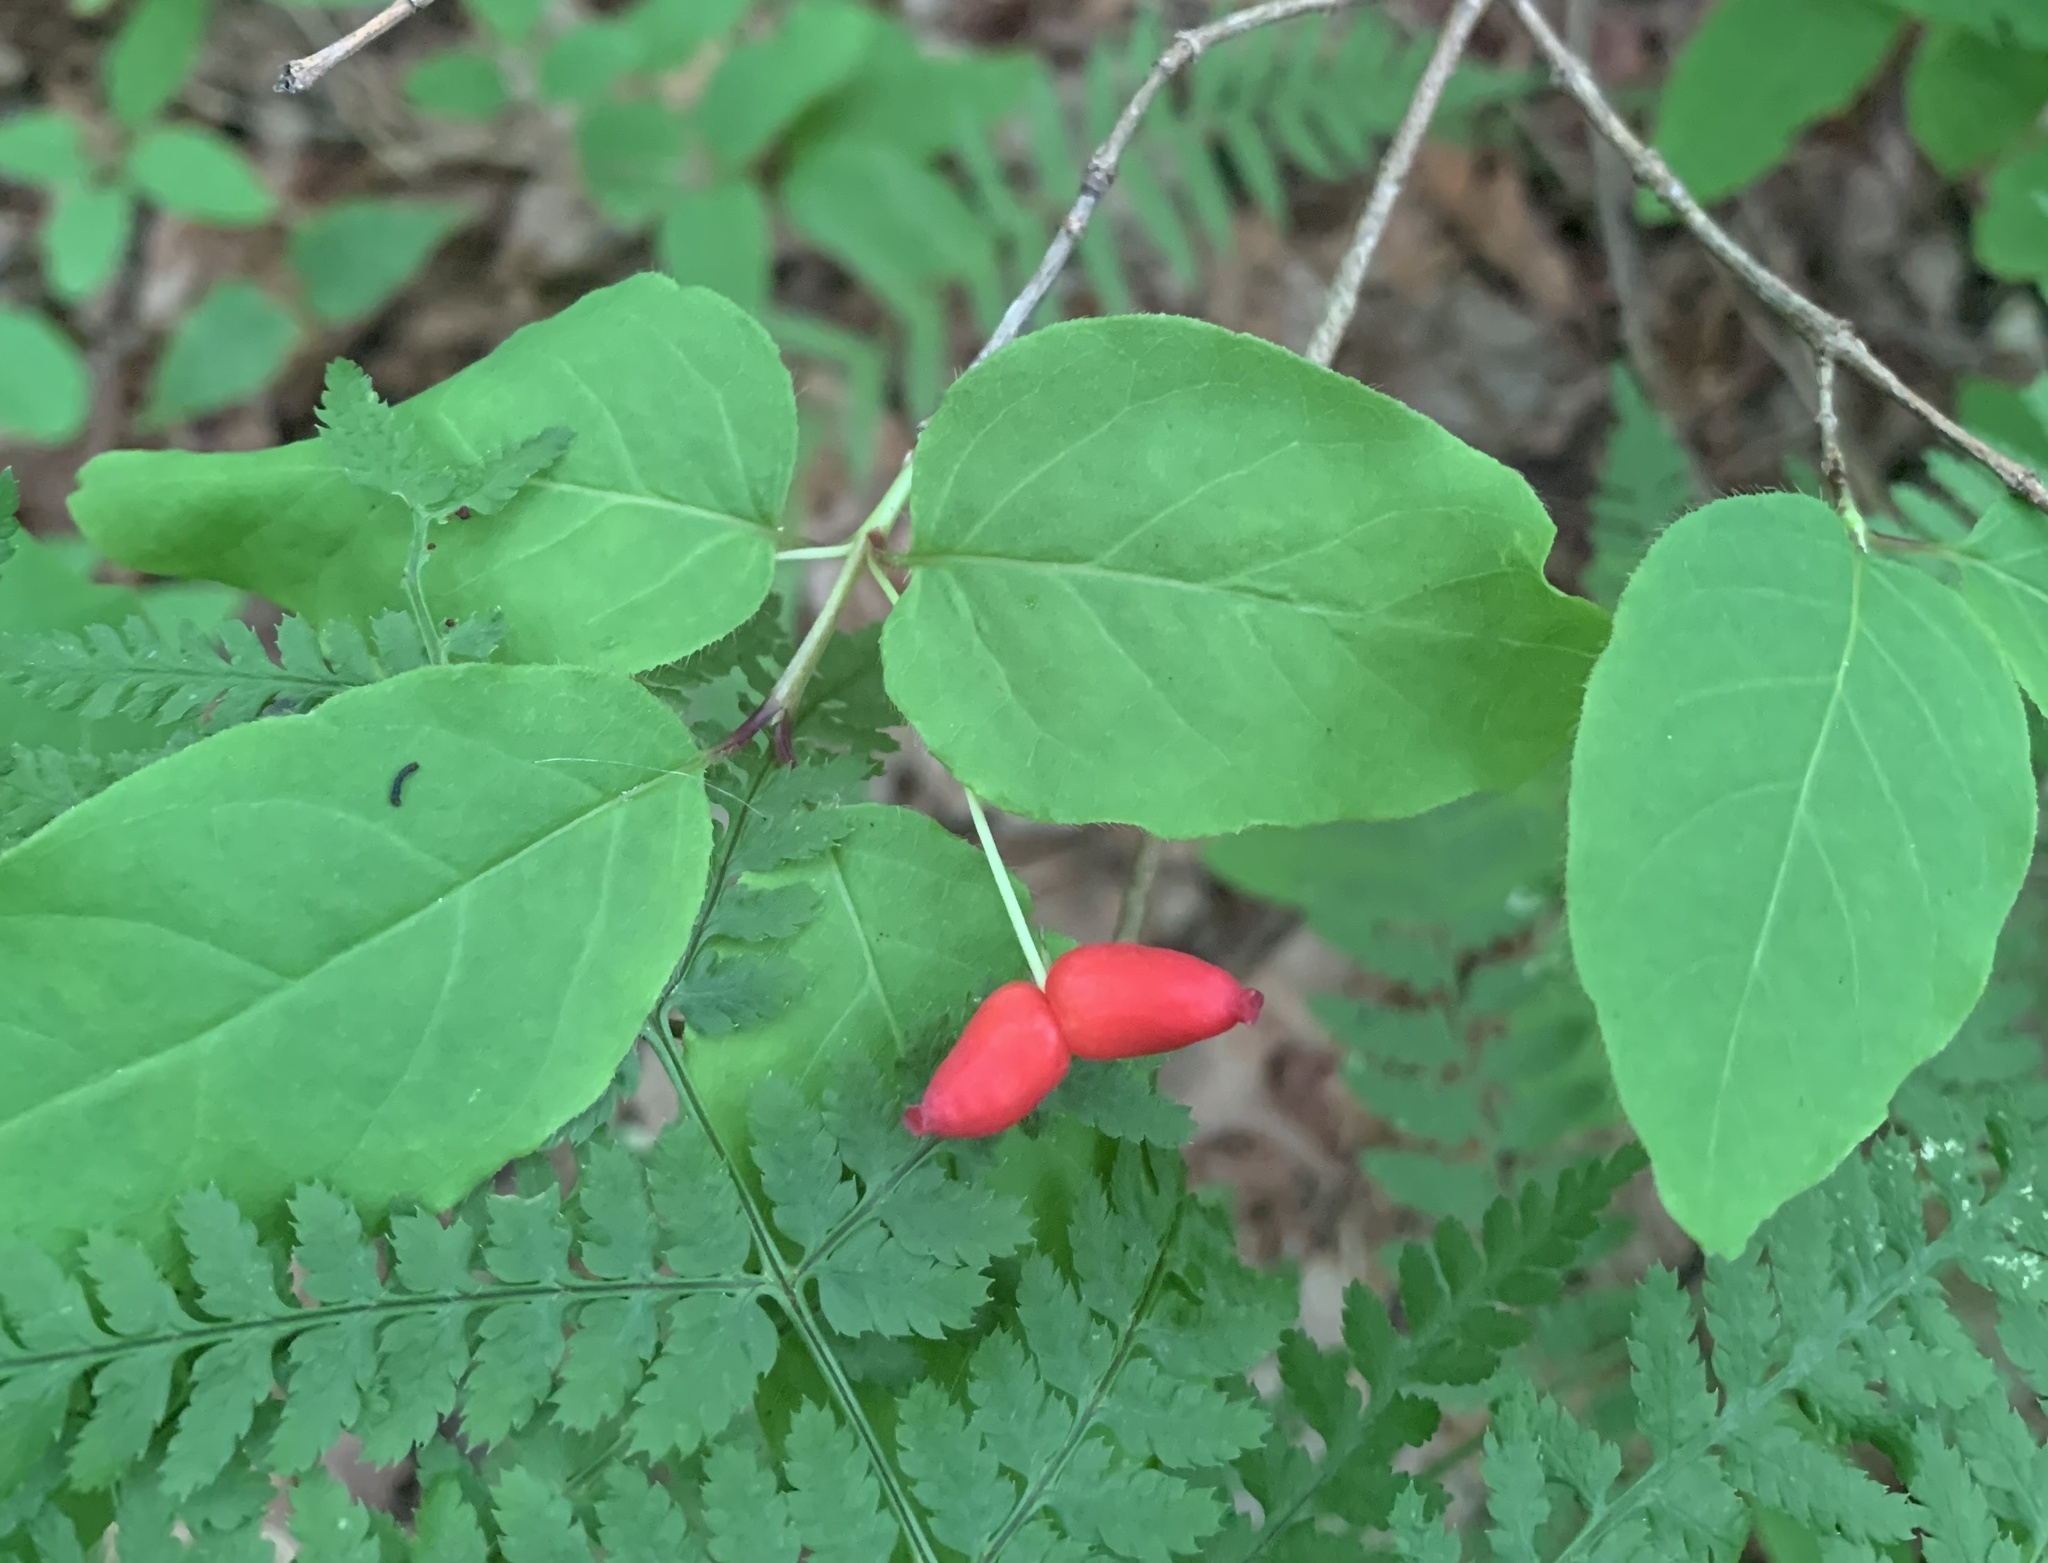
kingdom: Plantae
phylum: Tracheophyta
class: Magnoliopsida
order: Dipsacales
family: Caprifoliaceae
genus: Lonicera
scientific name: Lonicera canadensis
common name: American fly-honeysuckle
